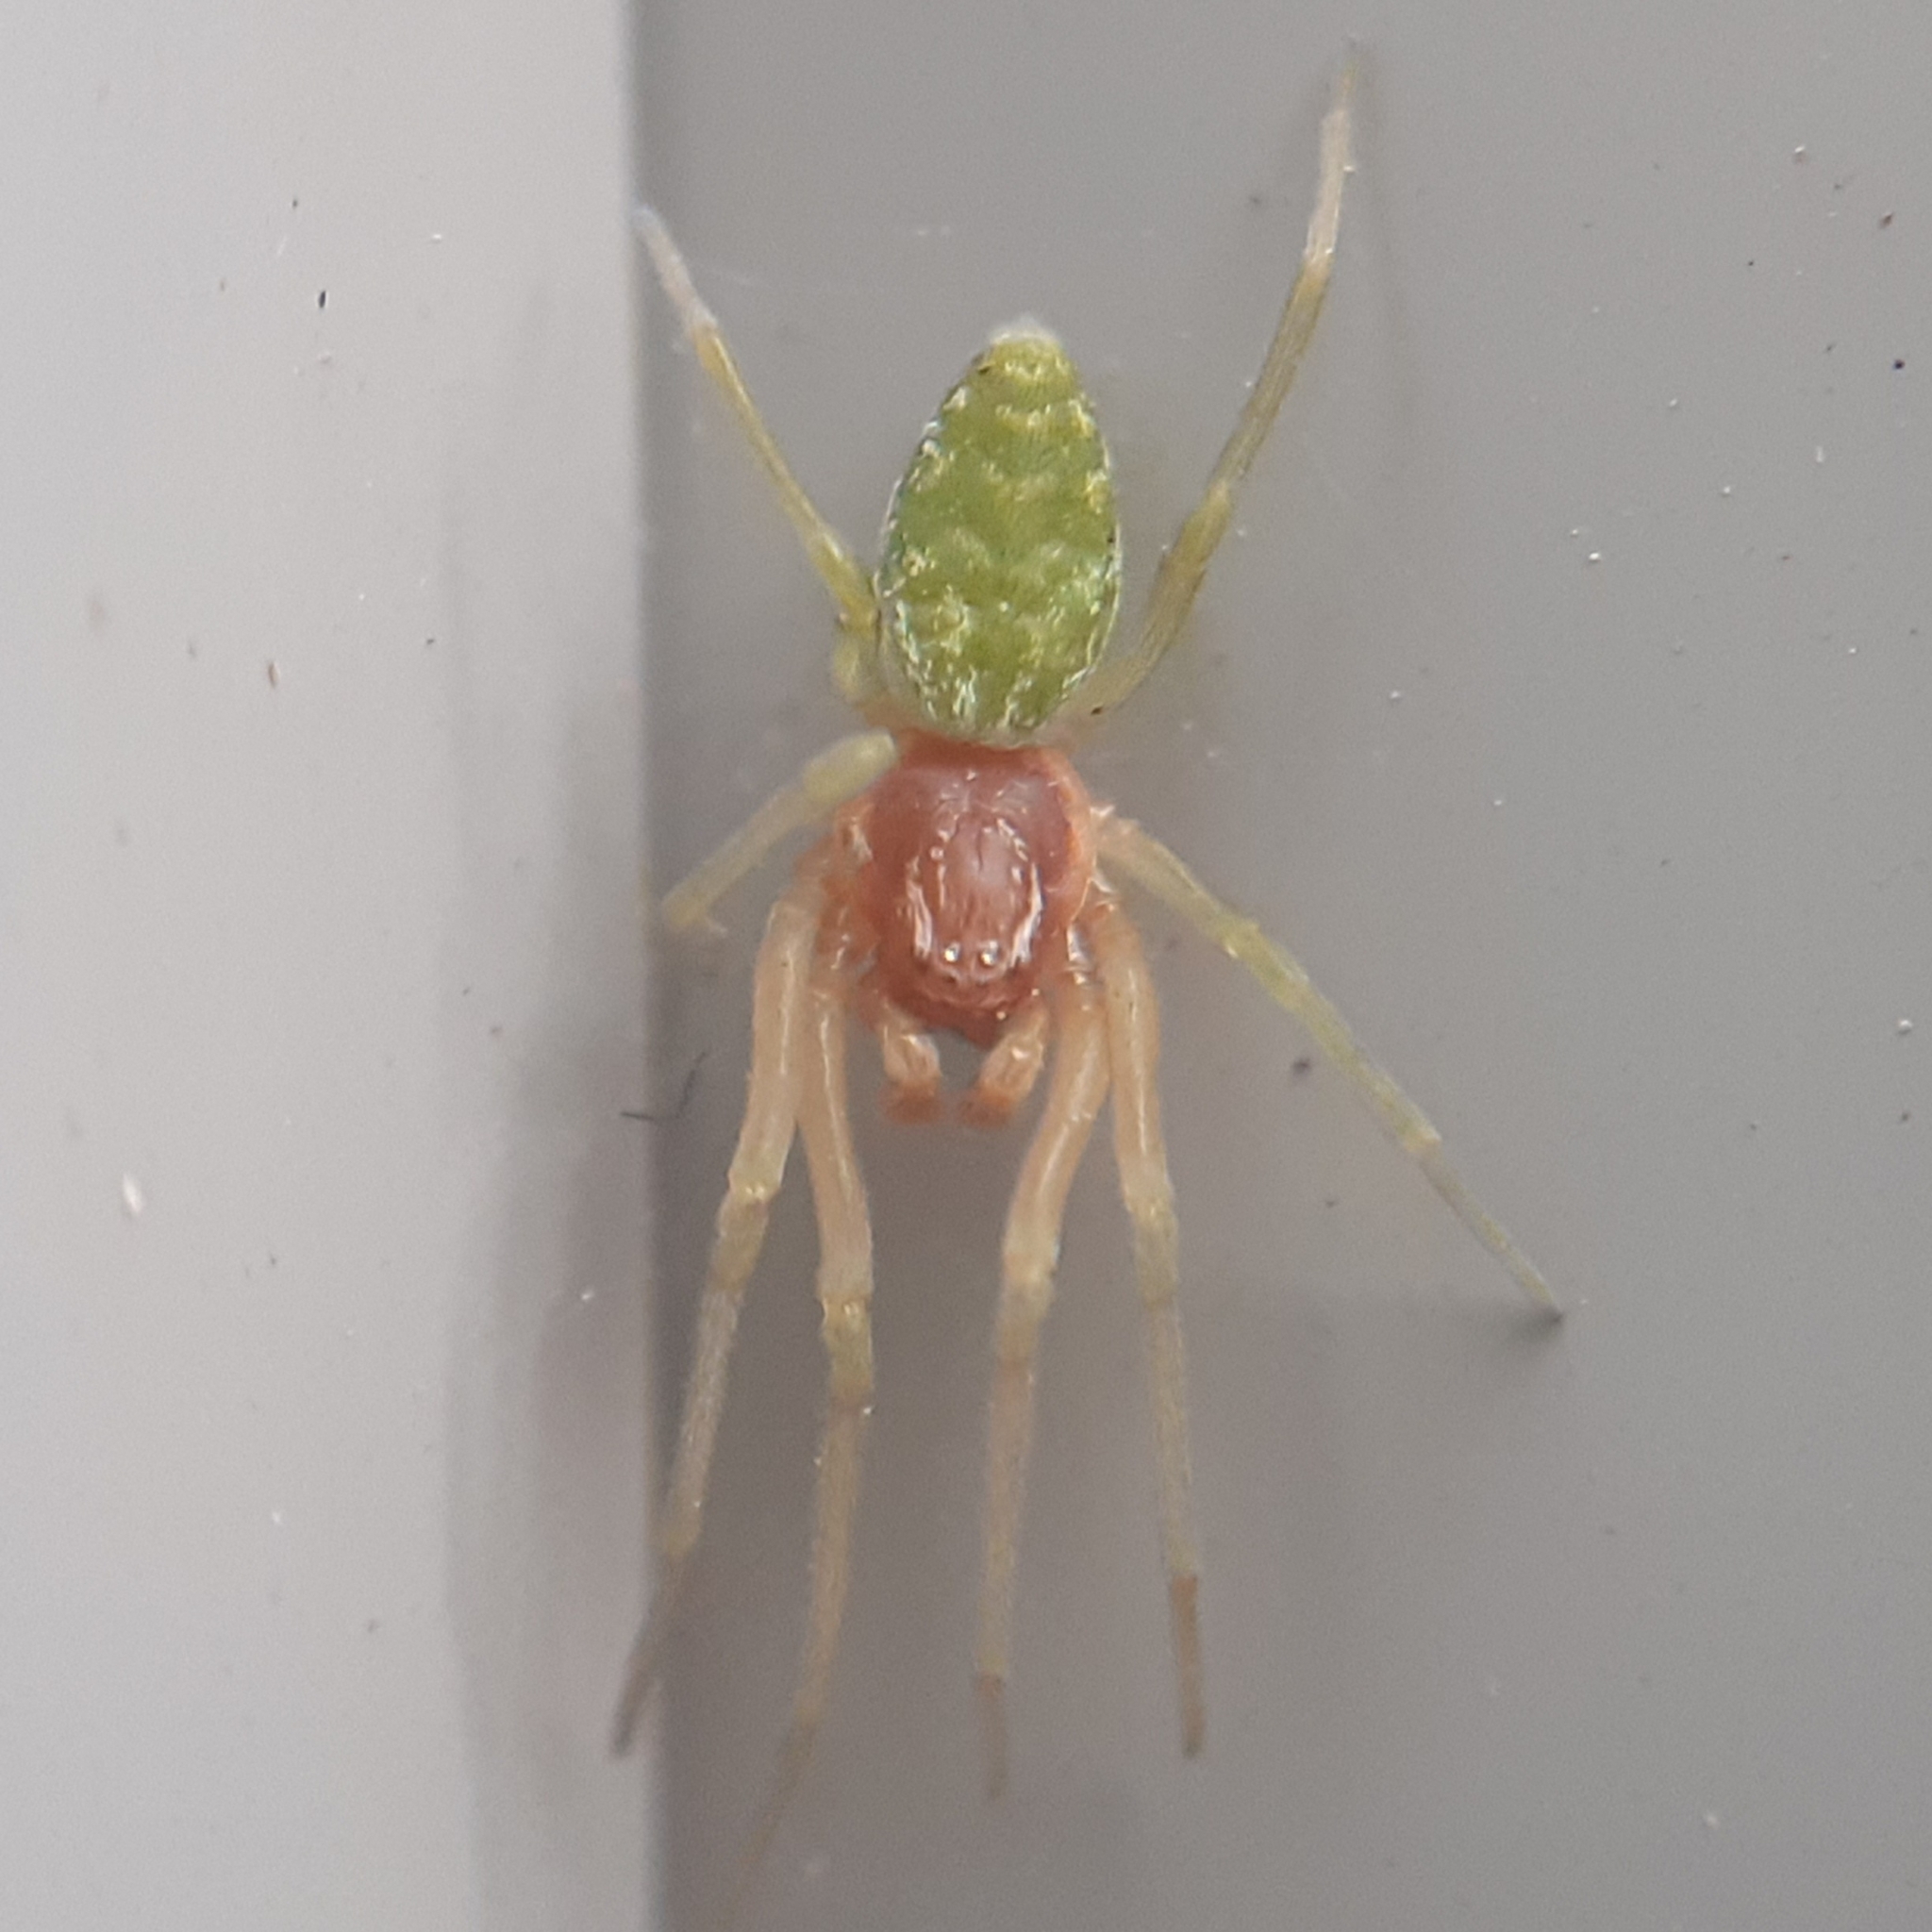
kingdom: Animalia
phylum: Arthropoda
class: Arachnida
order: Araneae
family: Dictynidae
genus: Nigma
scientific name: Nigma walckenaeri
